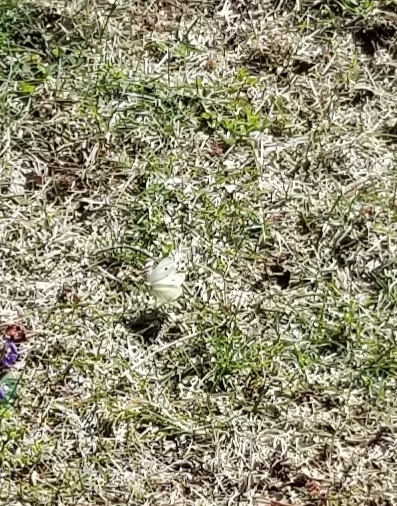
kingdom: Animalia
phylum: Arthropoda
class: Insecta
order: Lepidoptera
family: Pieridae
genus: Pieris
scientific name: Pieris rapae
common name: Small white
